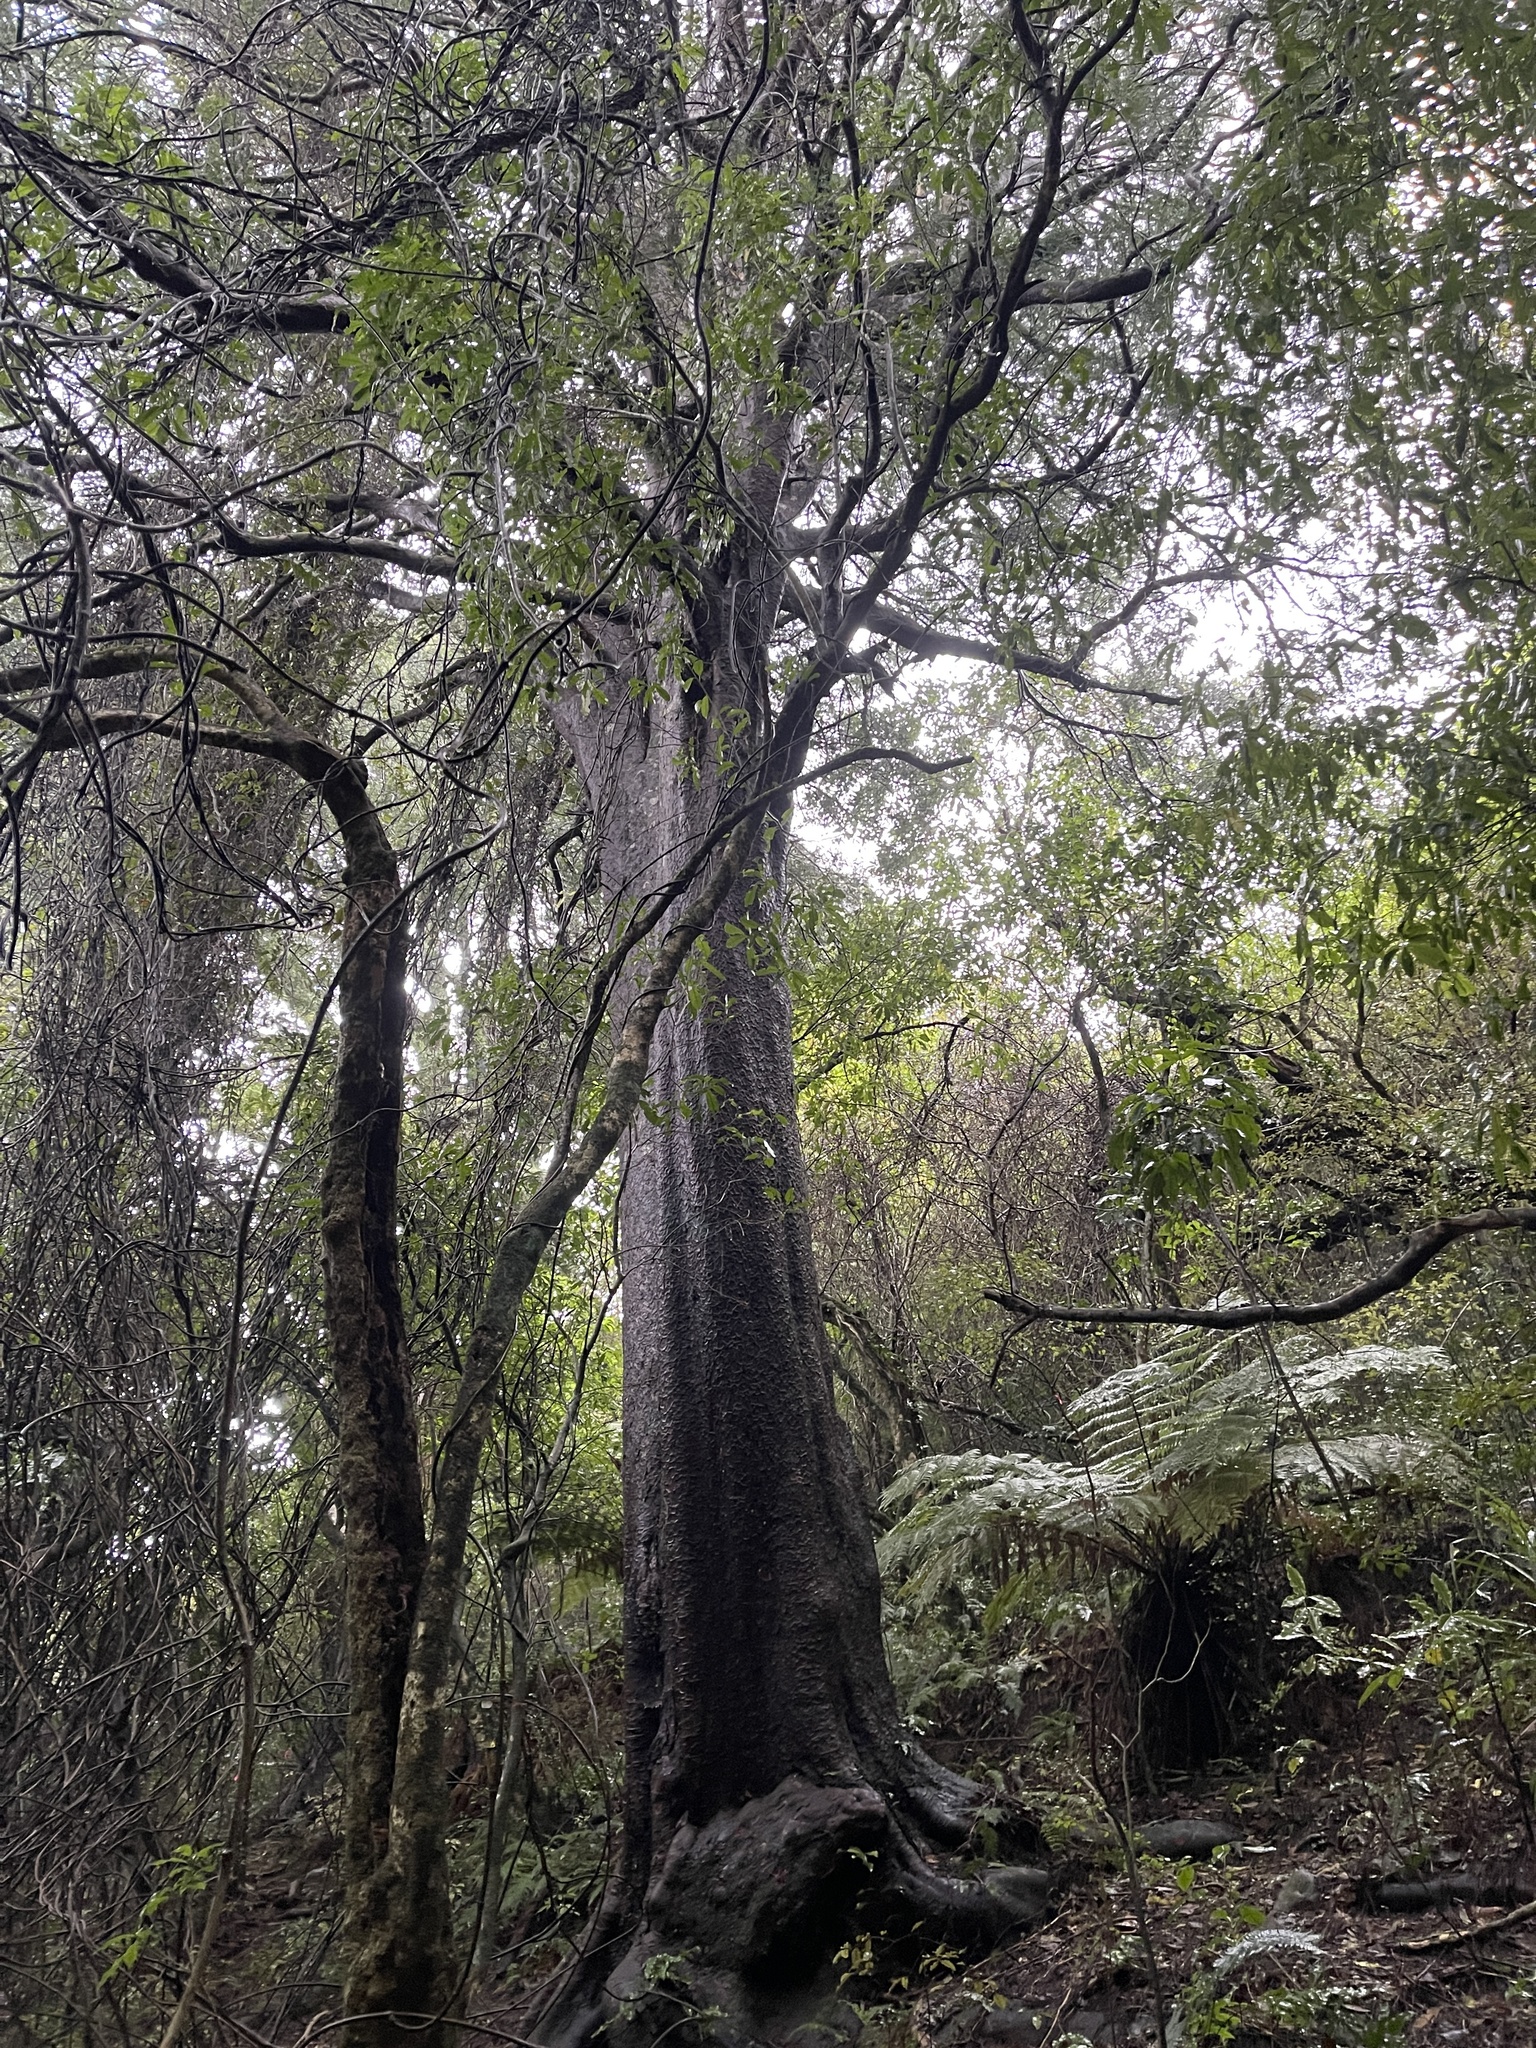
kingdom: Plantae
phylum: Tracheophyta
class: Pinopsida
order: Pinales
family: Podocarpaceae
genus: Prumnopitys
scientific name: Prumnopitys taxifolia
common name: Matai
